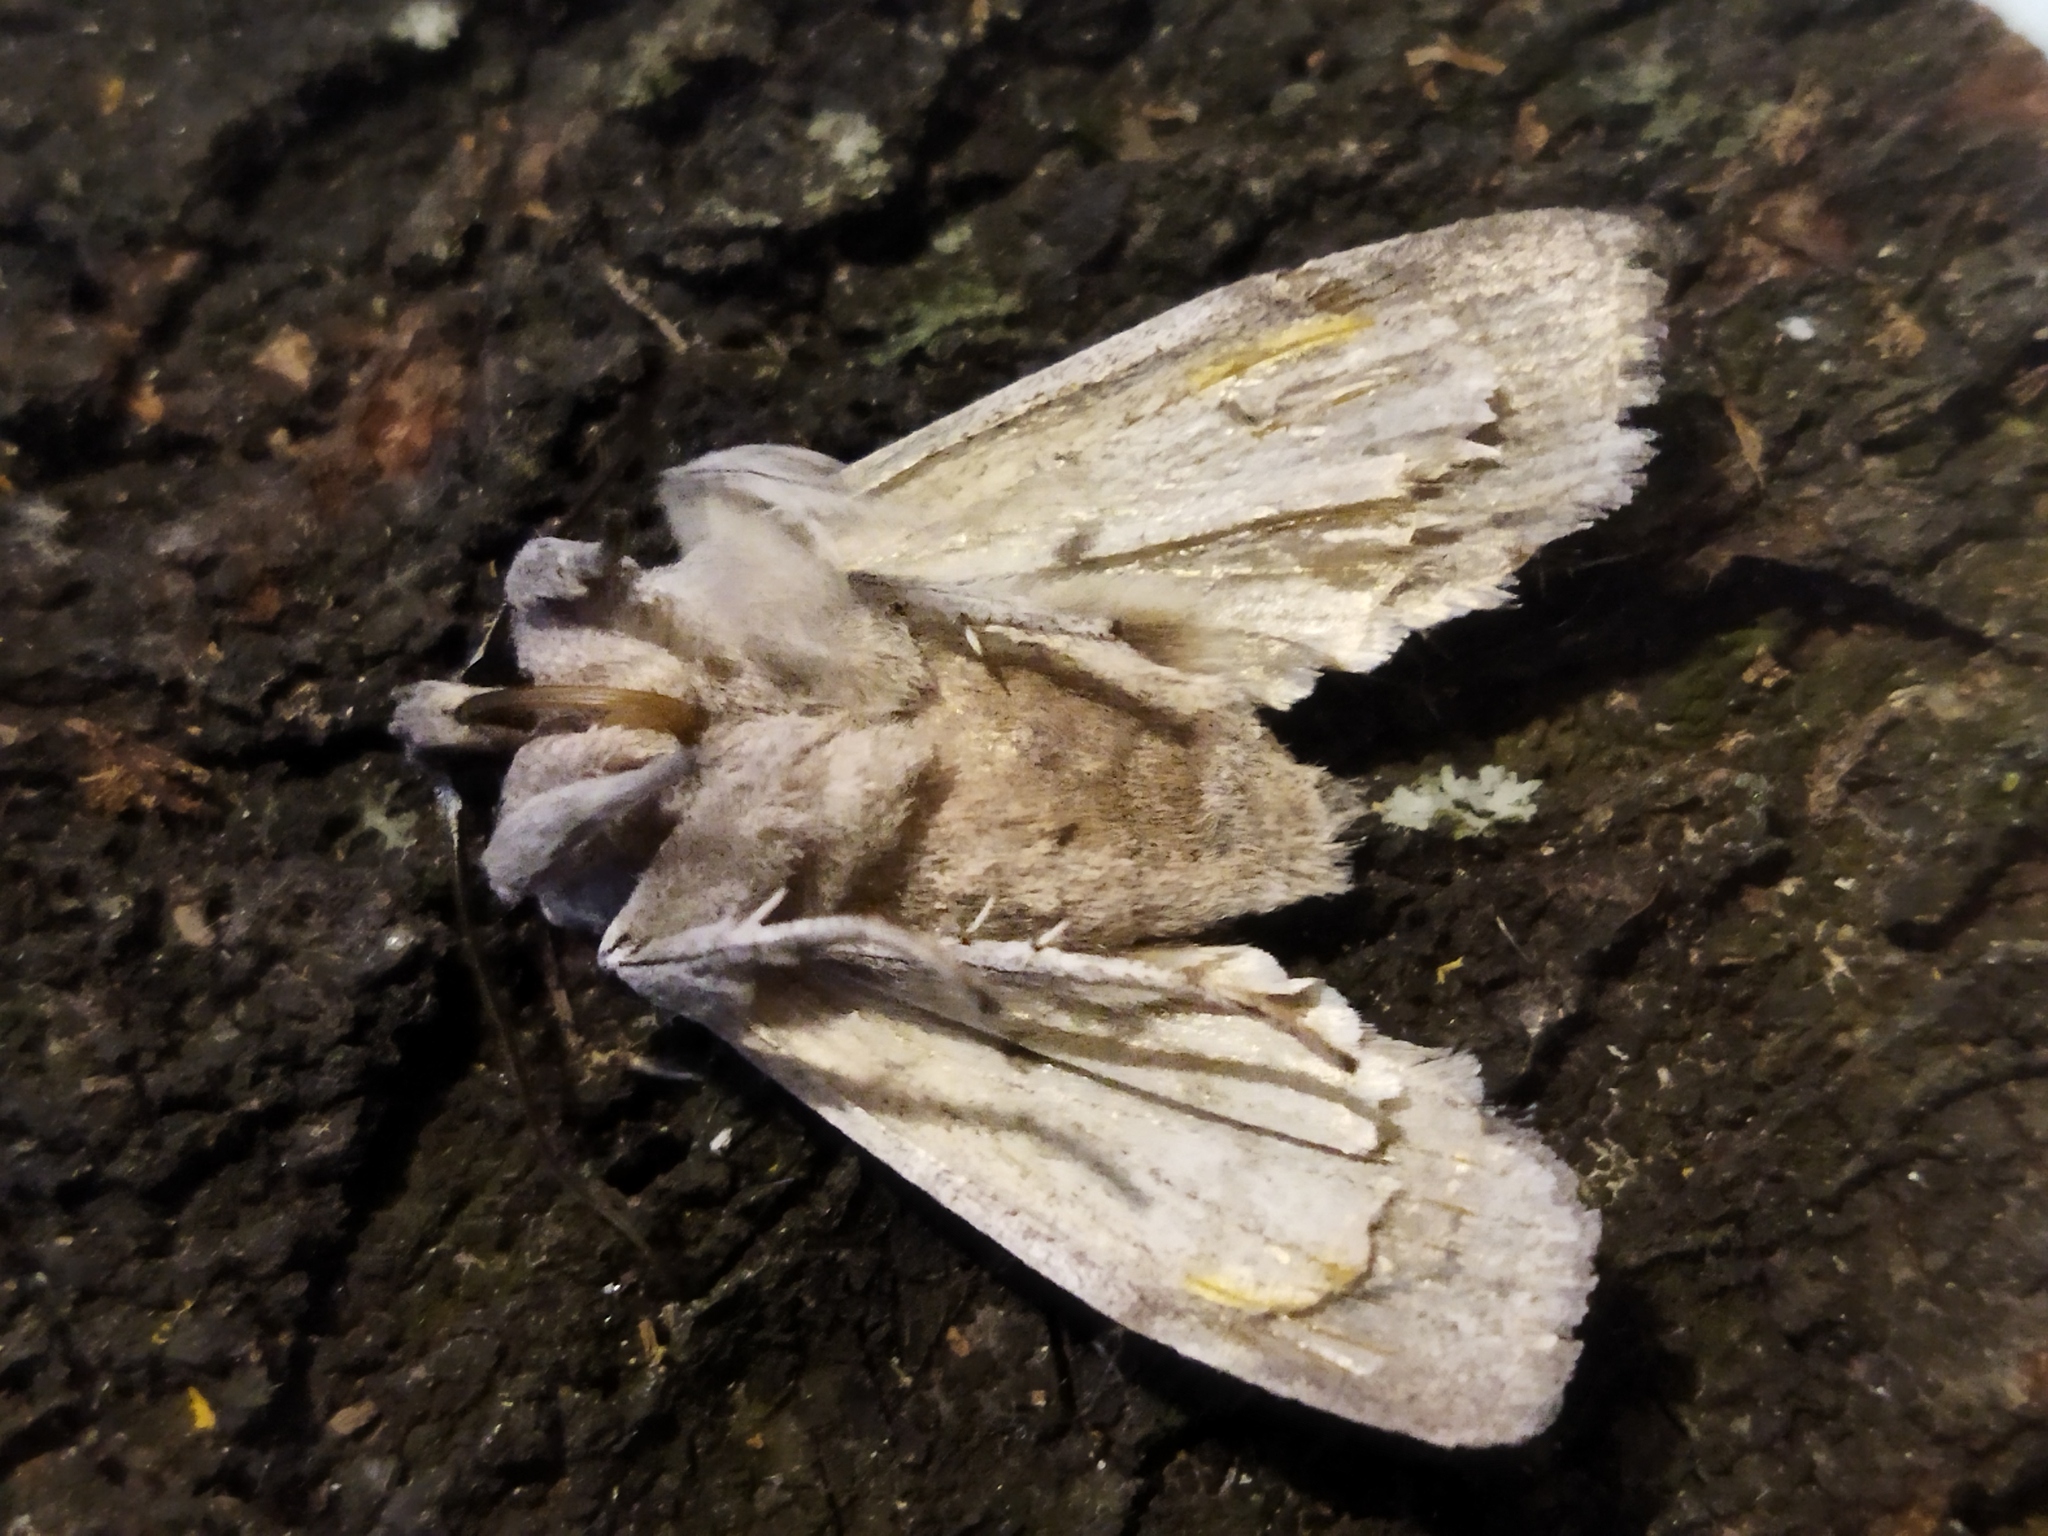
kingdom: Animalia
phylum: Arthropoda
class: Insecta
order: Lepidoptera
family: Noctuidae
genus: Lithophane
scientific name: Lithophane merckii
